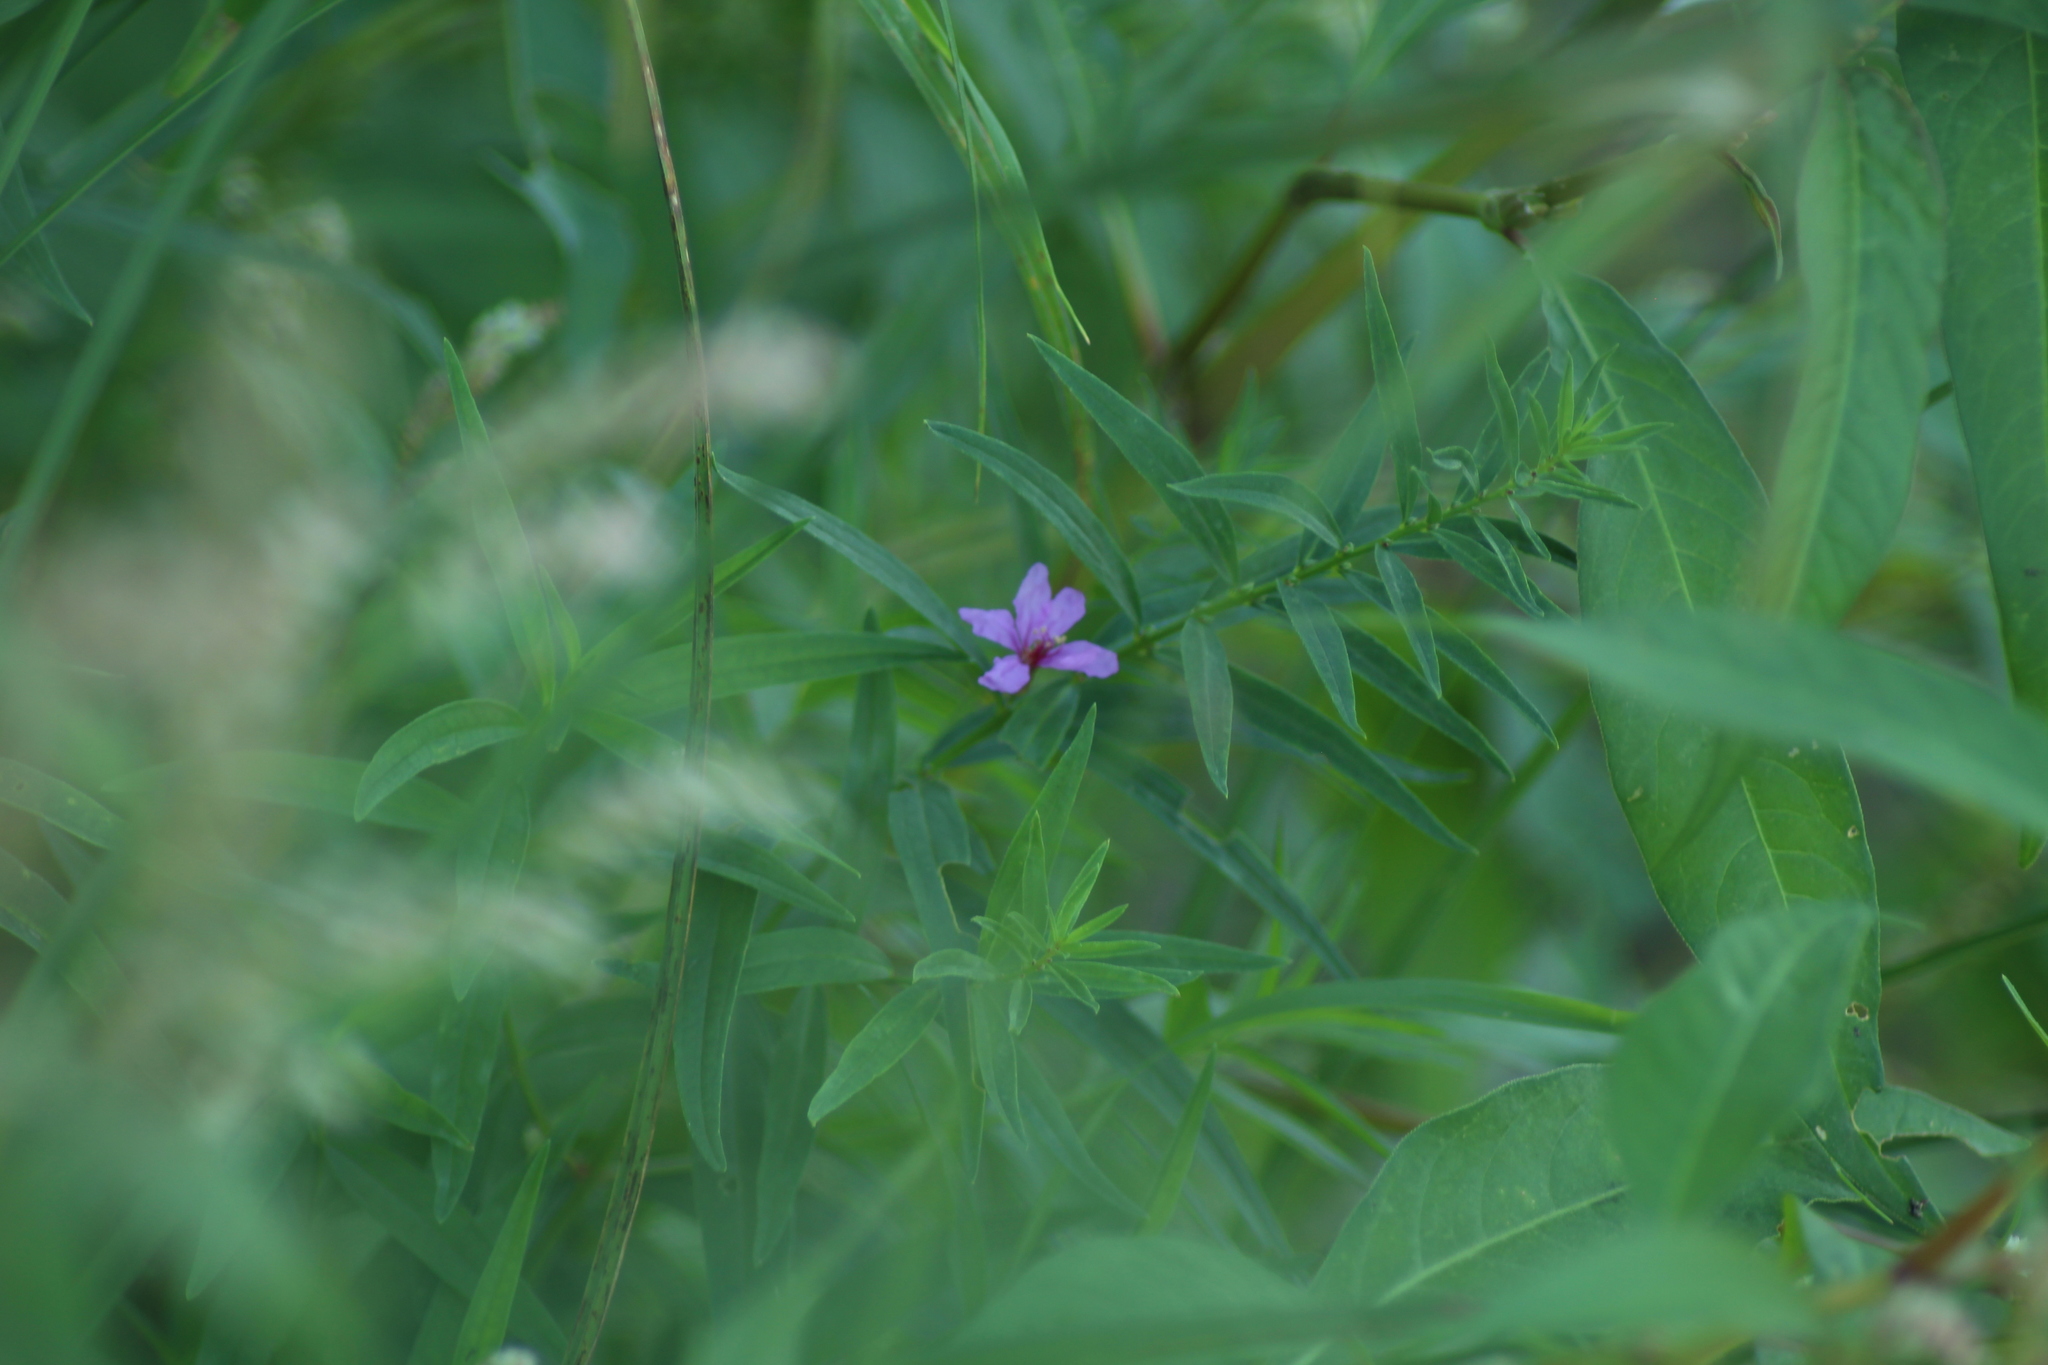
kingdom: Plantae
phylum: Tracheophyta
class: Magnoliopsida
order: Myrtales
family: Lythraceae
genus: Lythrum
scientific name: Lythrum salicaria
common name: Purple loosestrife
